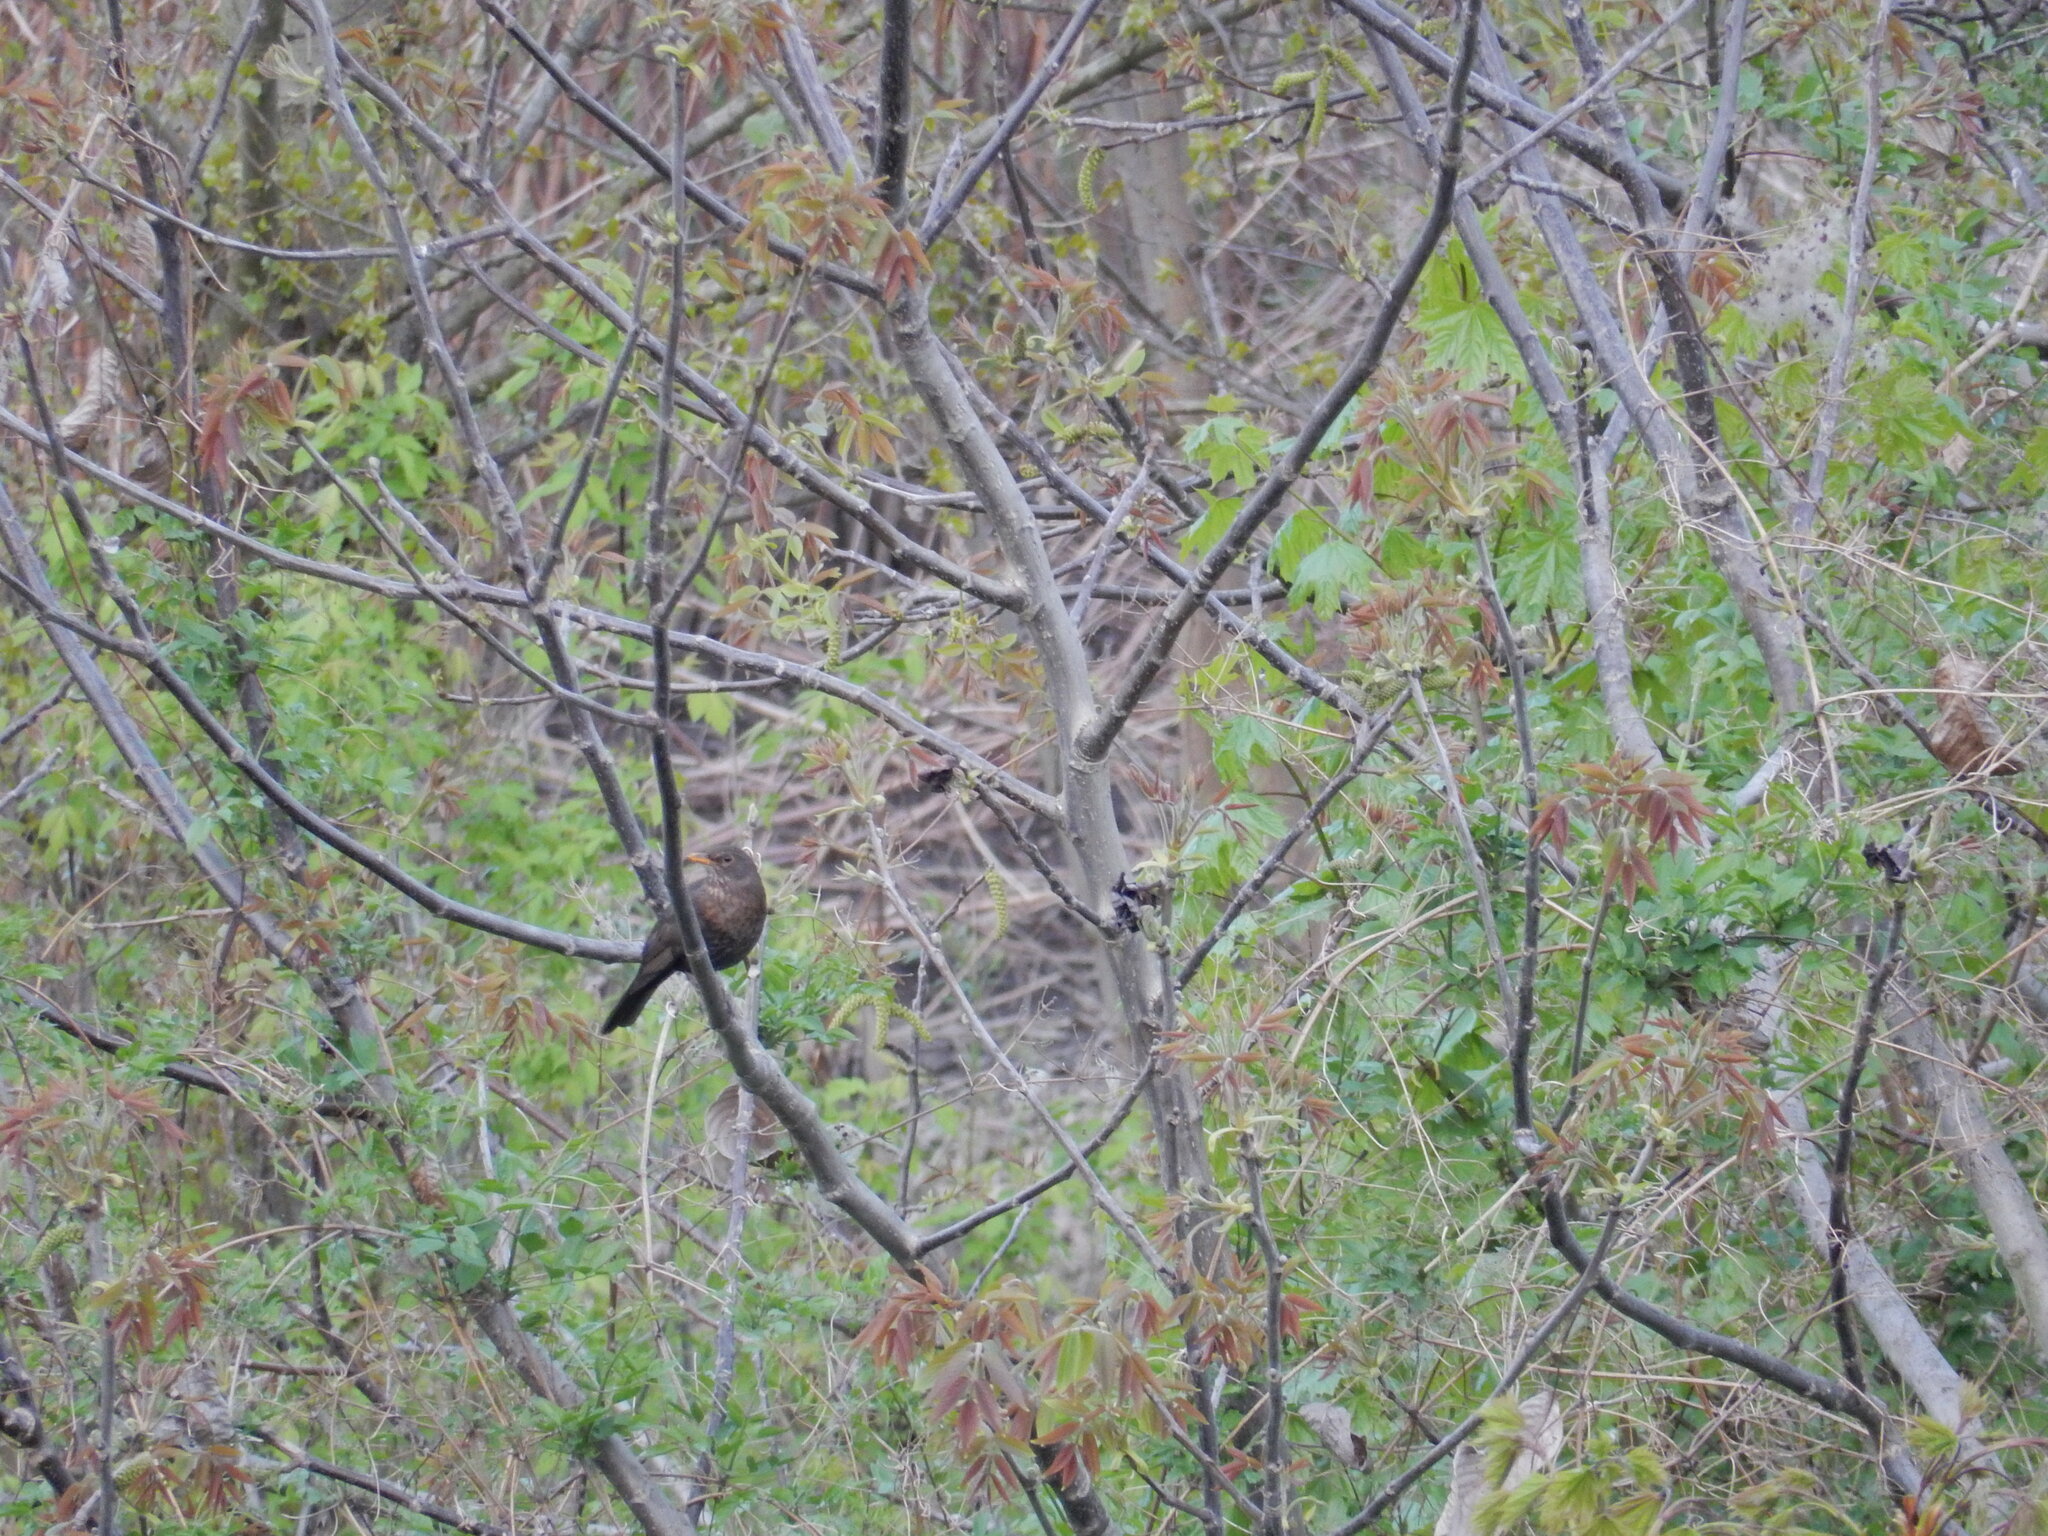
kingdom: Animalia
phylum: Chordata
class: Aves
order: Passeriformes
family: Turdidae
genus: Turdus
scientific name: Turdus merula
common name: Common blackbird
